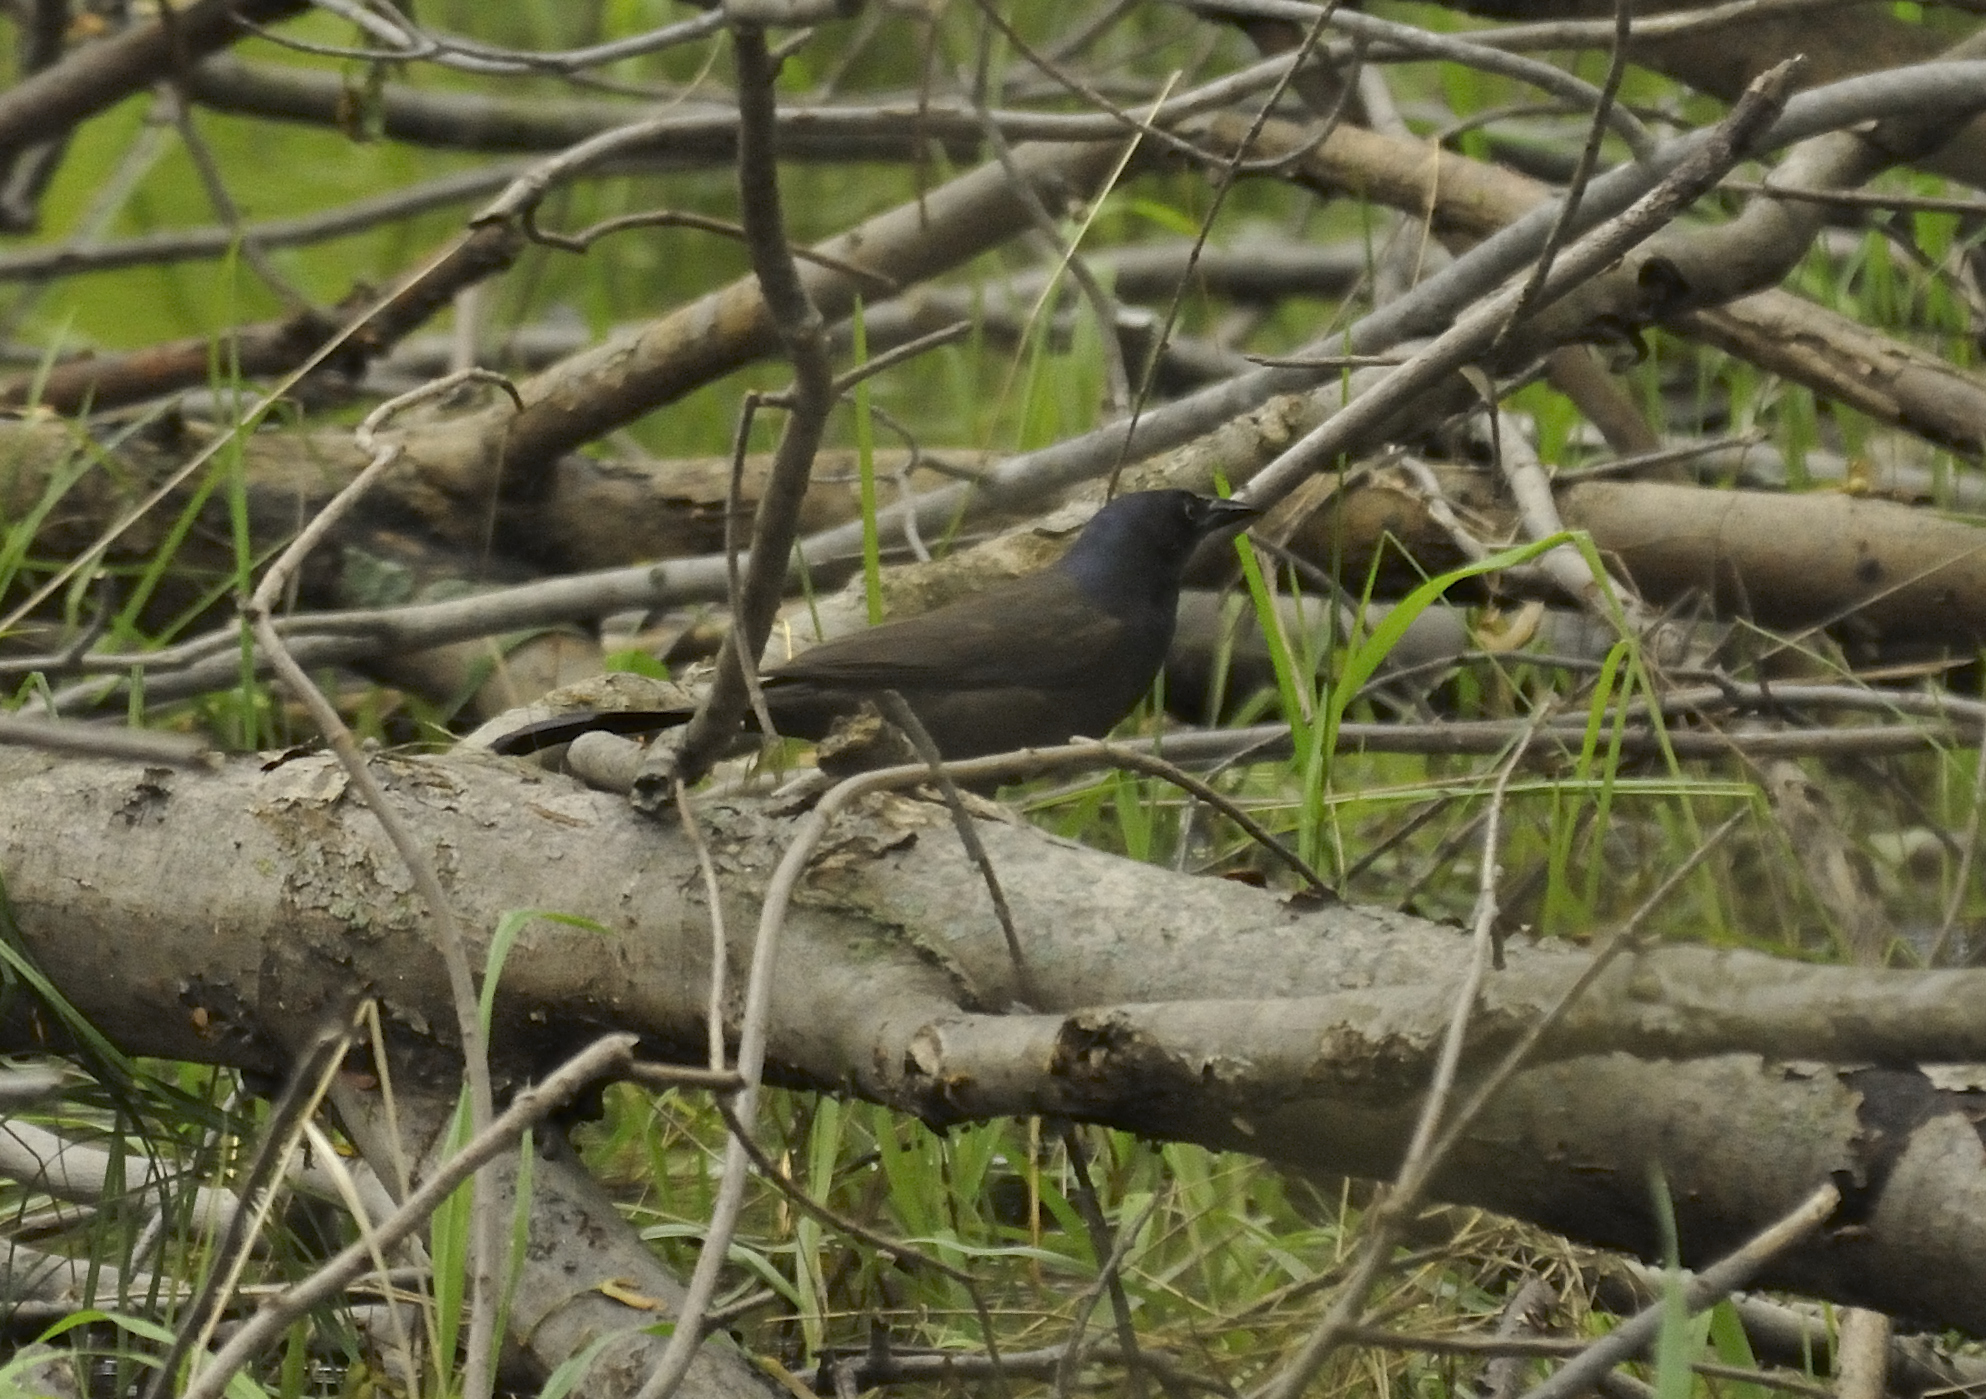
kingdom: Animalia
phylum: Chordata
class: Aves
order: Passeriformes
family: Icteridae
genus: Quiscalus
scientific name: Quiscalus quiscula
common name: Common grackle
